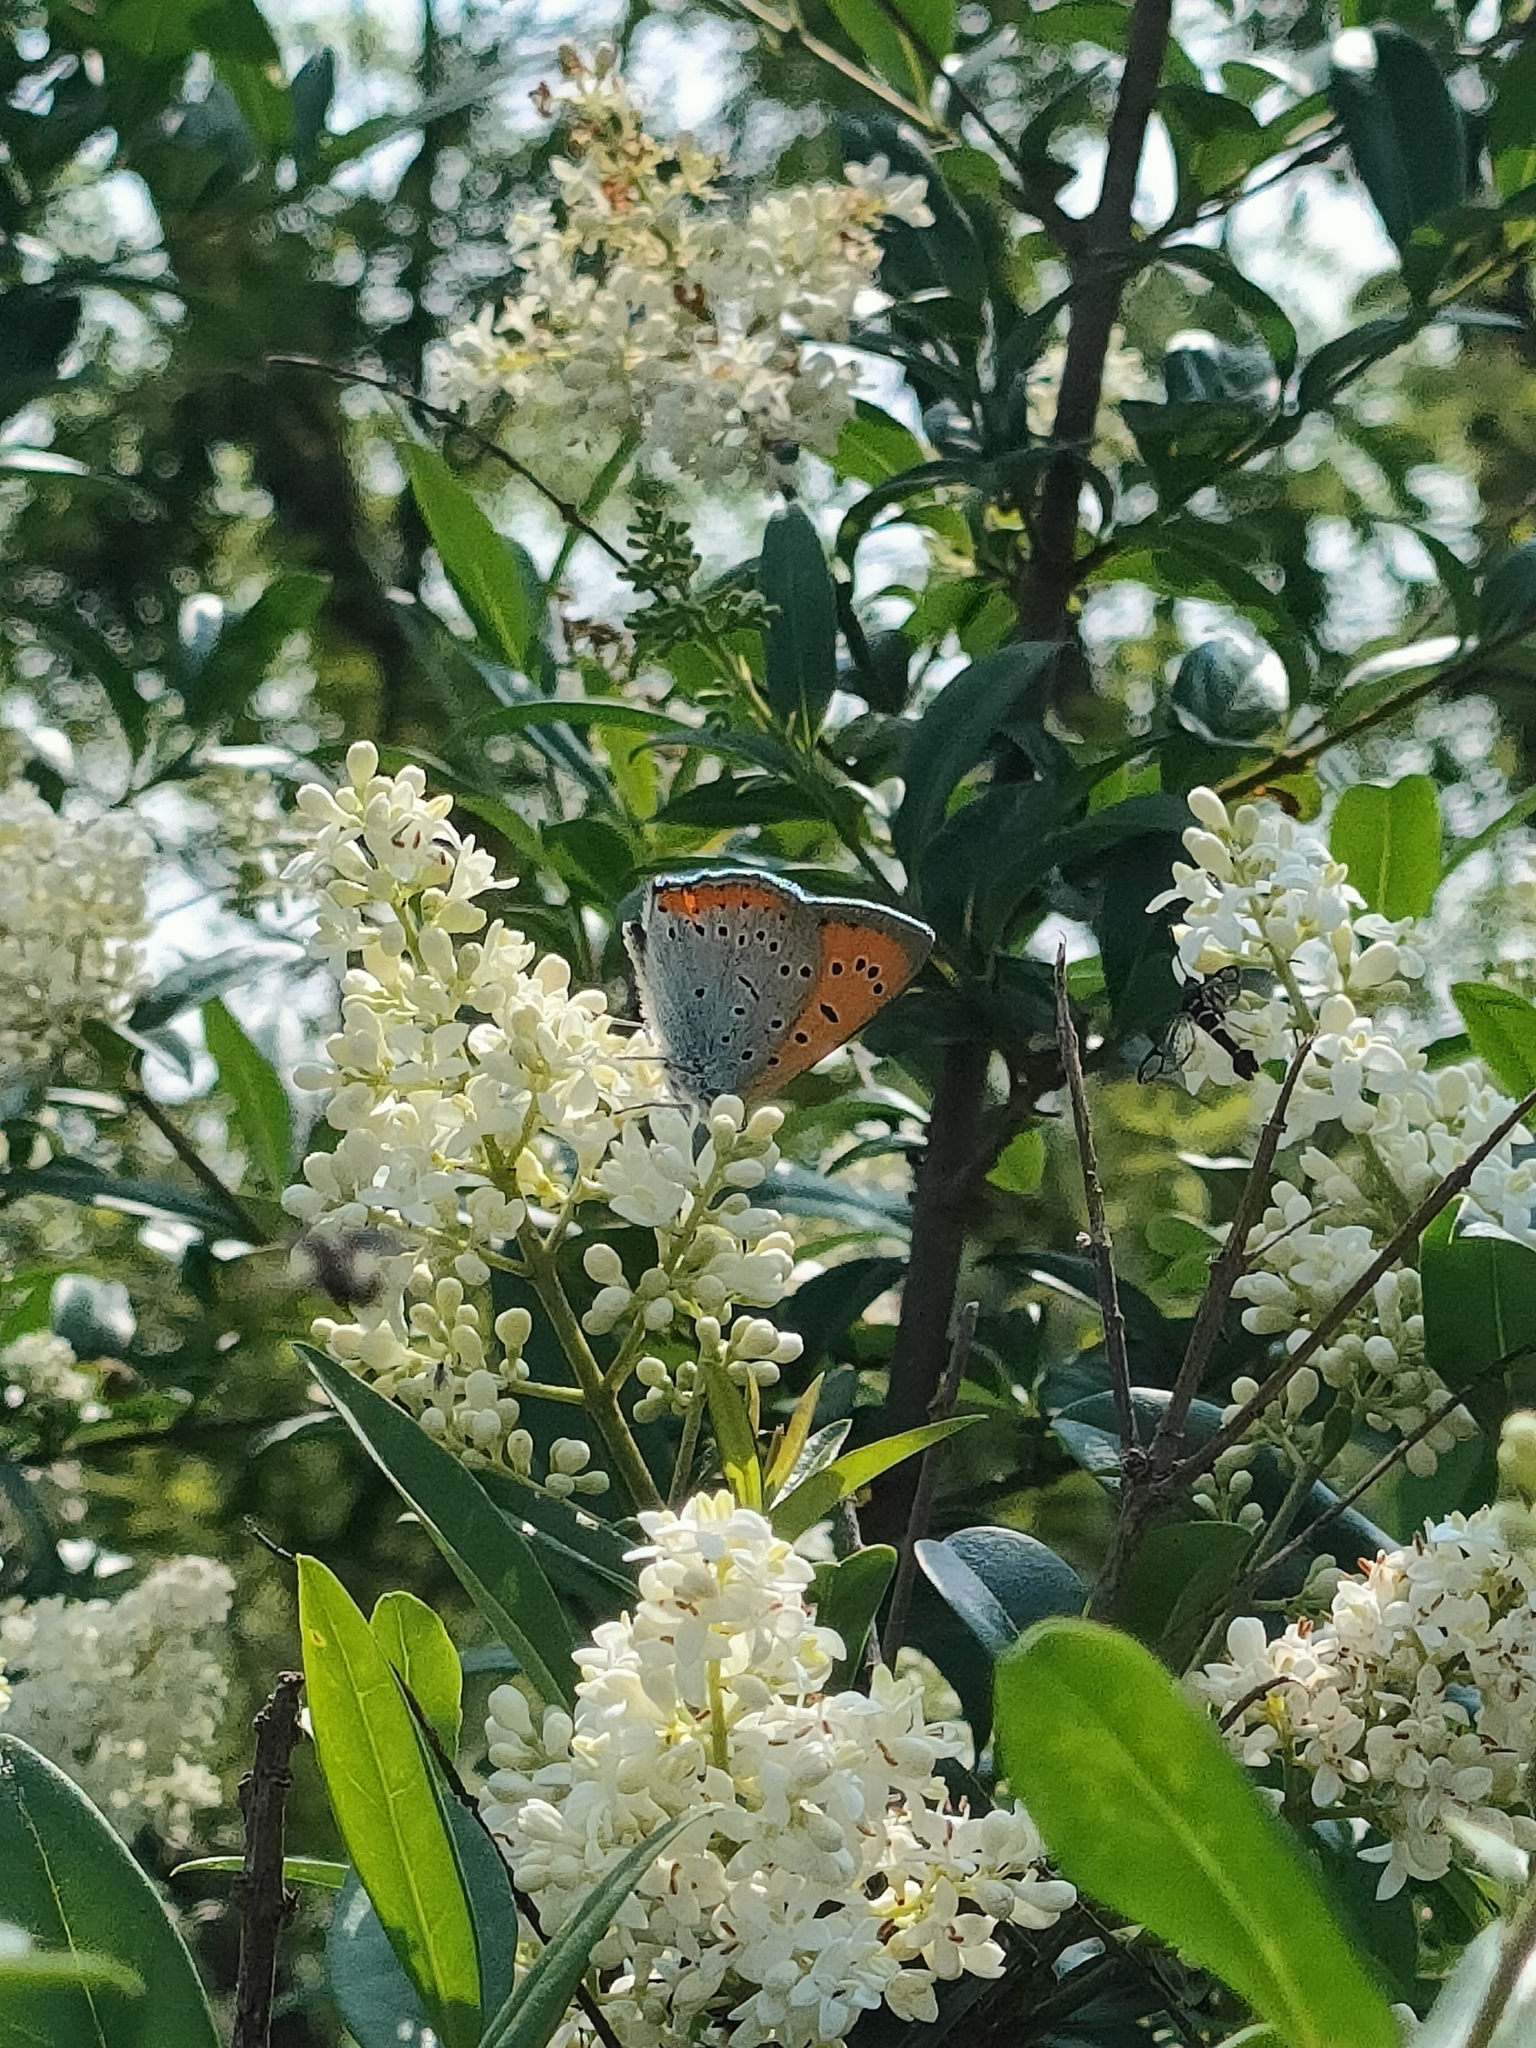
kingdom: Animalia
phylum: Arthropoda
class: Insecta
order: Lepidoptera
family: Lycaenidae
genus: Lycaena
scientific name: Lycaena dispar
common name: Large copper
